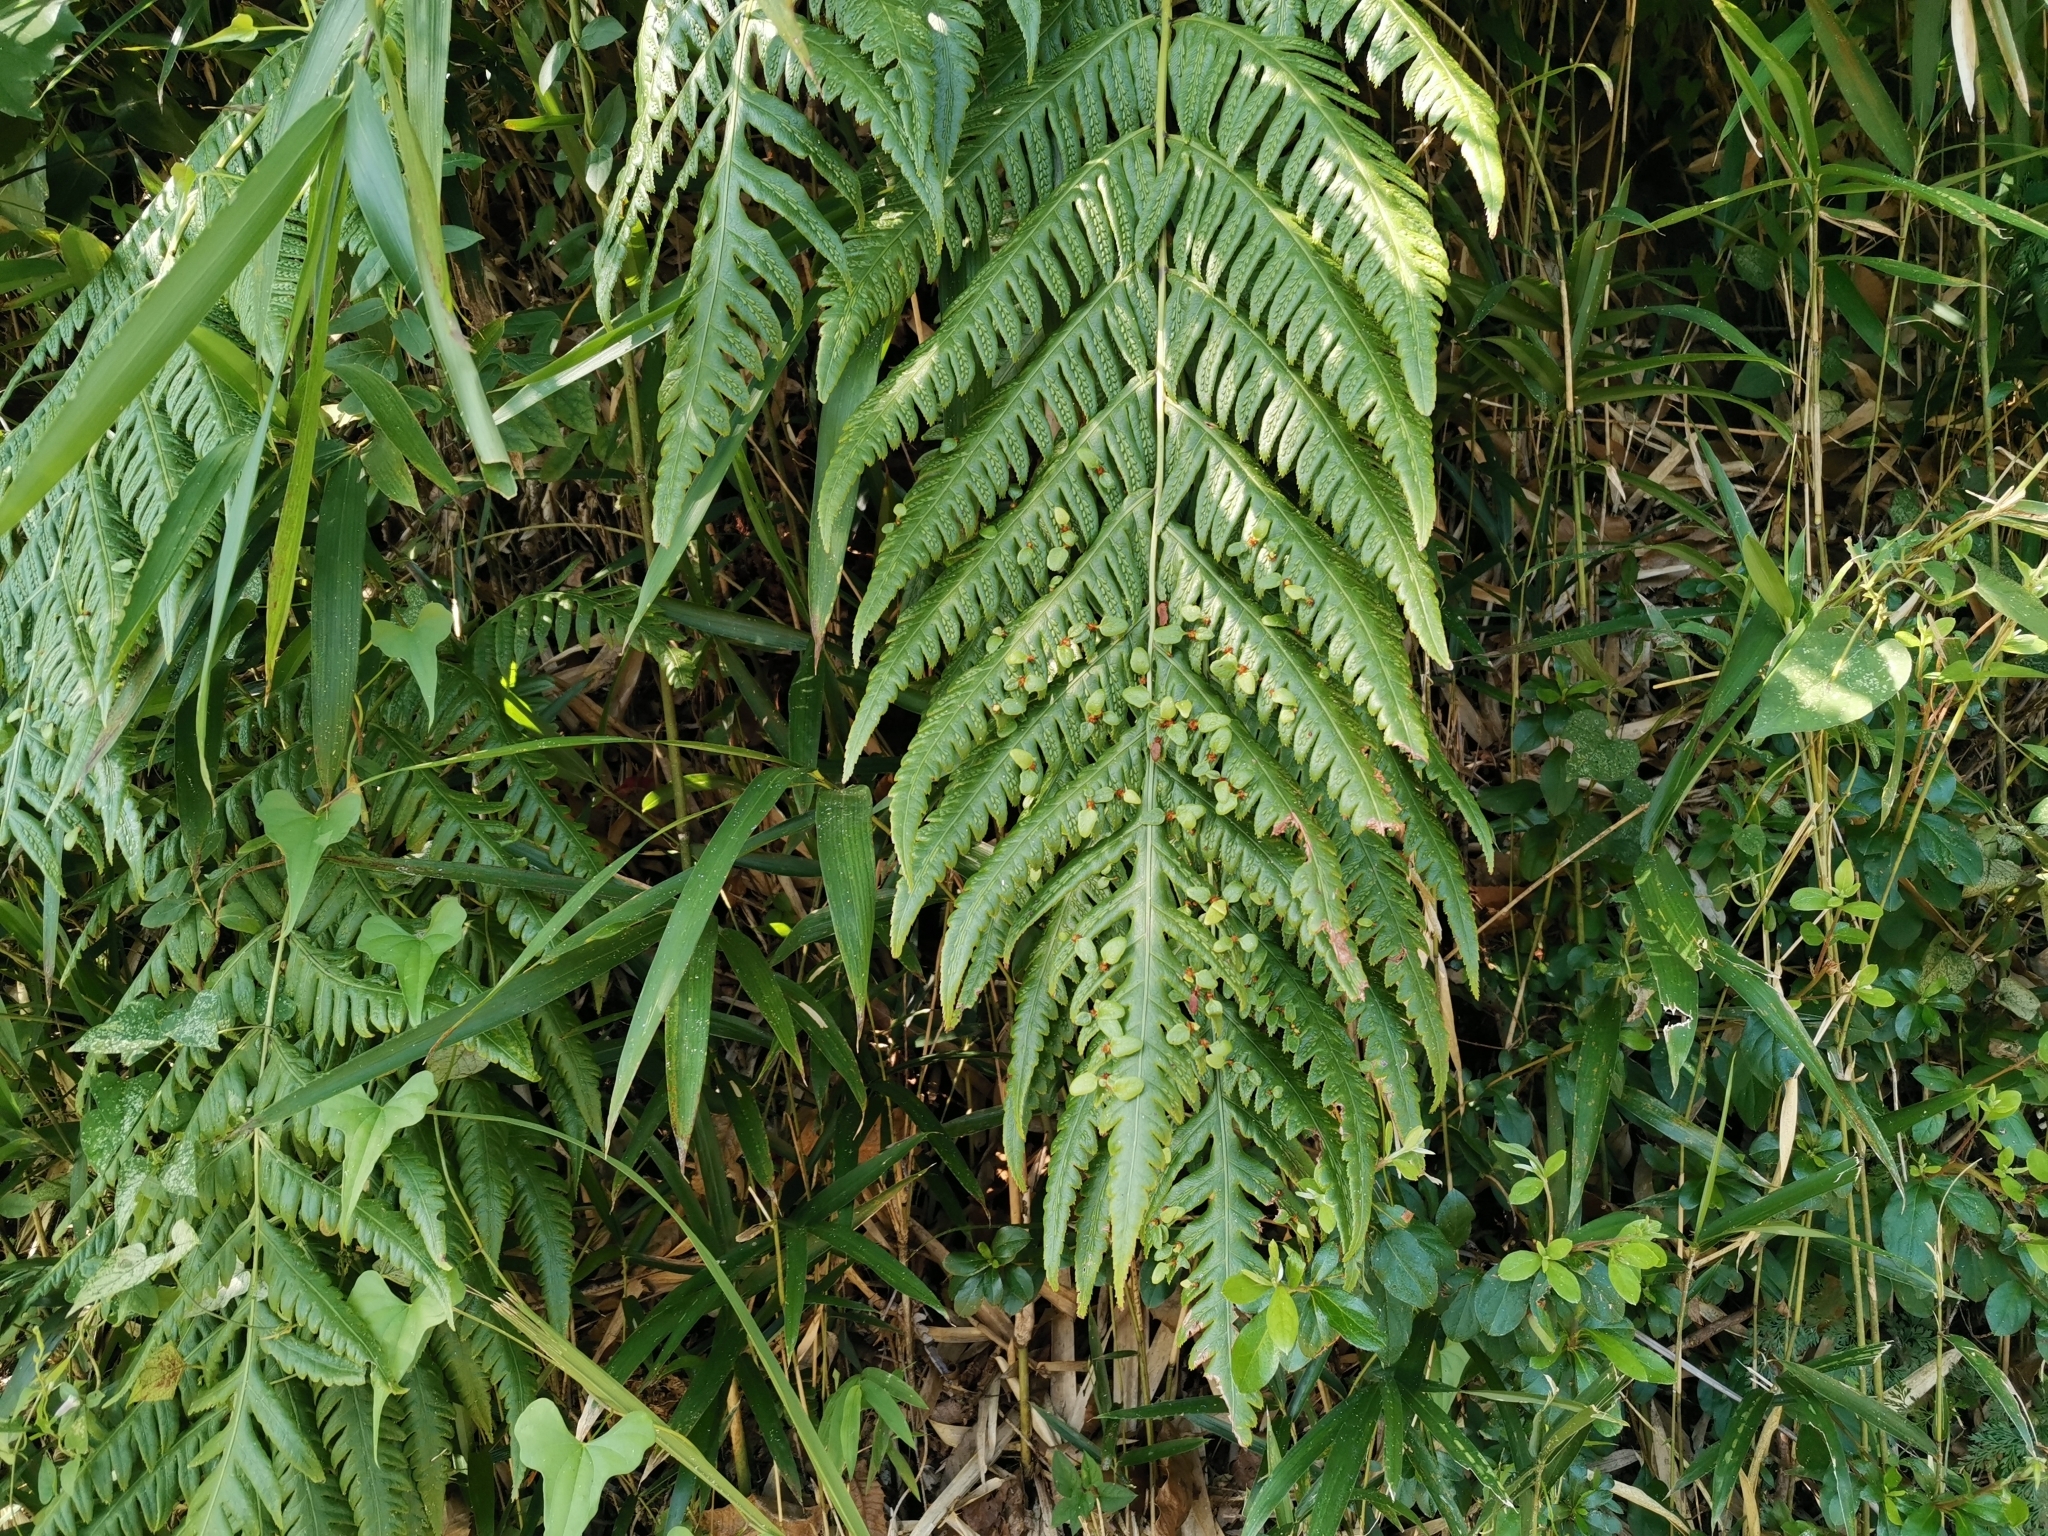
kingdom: Plantae
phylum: Tracheophyta
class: Polypodiopsida
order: Polypodiales
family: Blechnaceae
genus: Woodwardia
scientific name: Woodwardia orientalis
